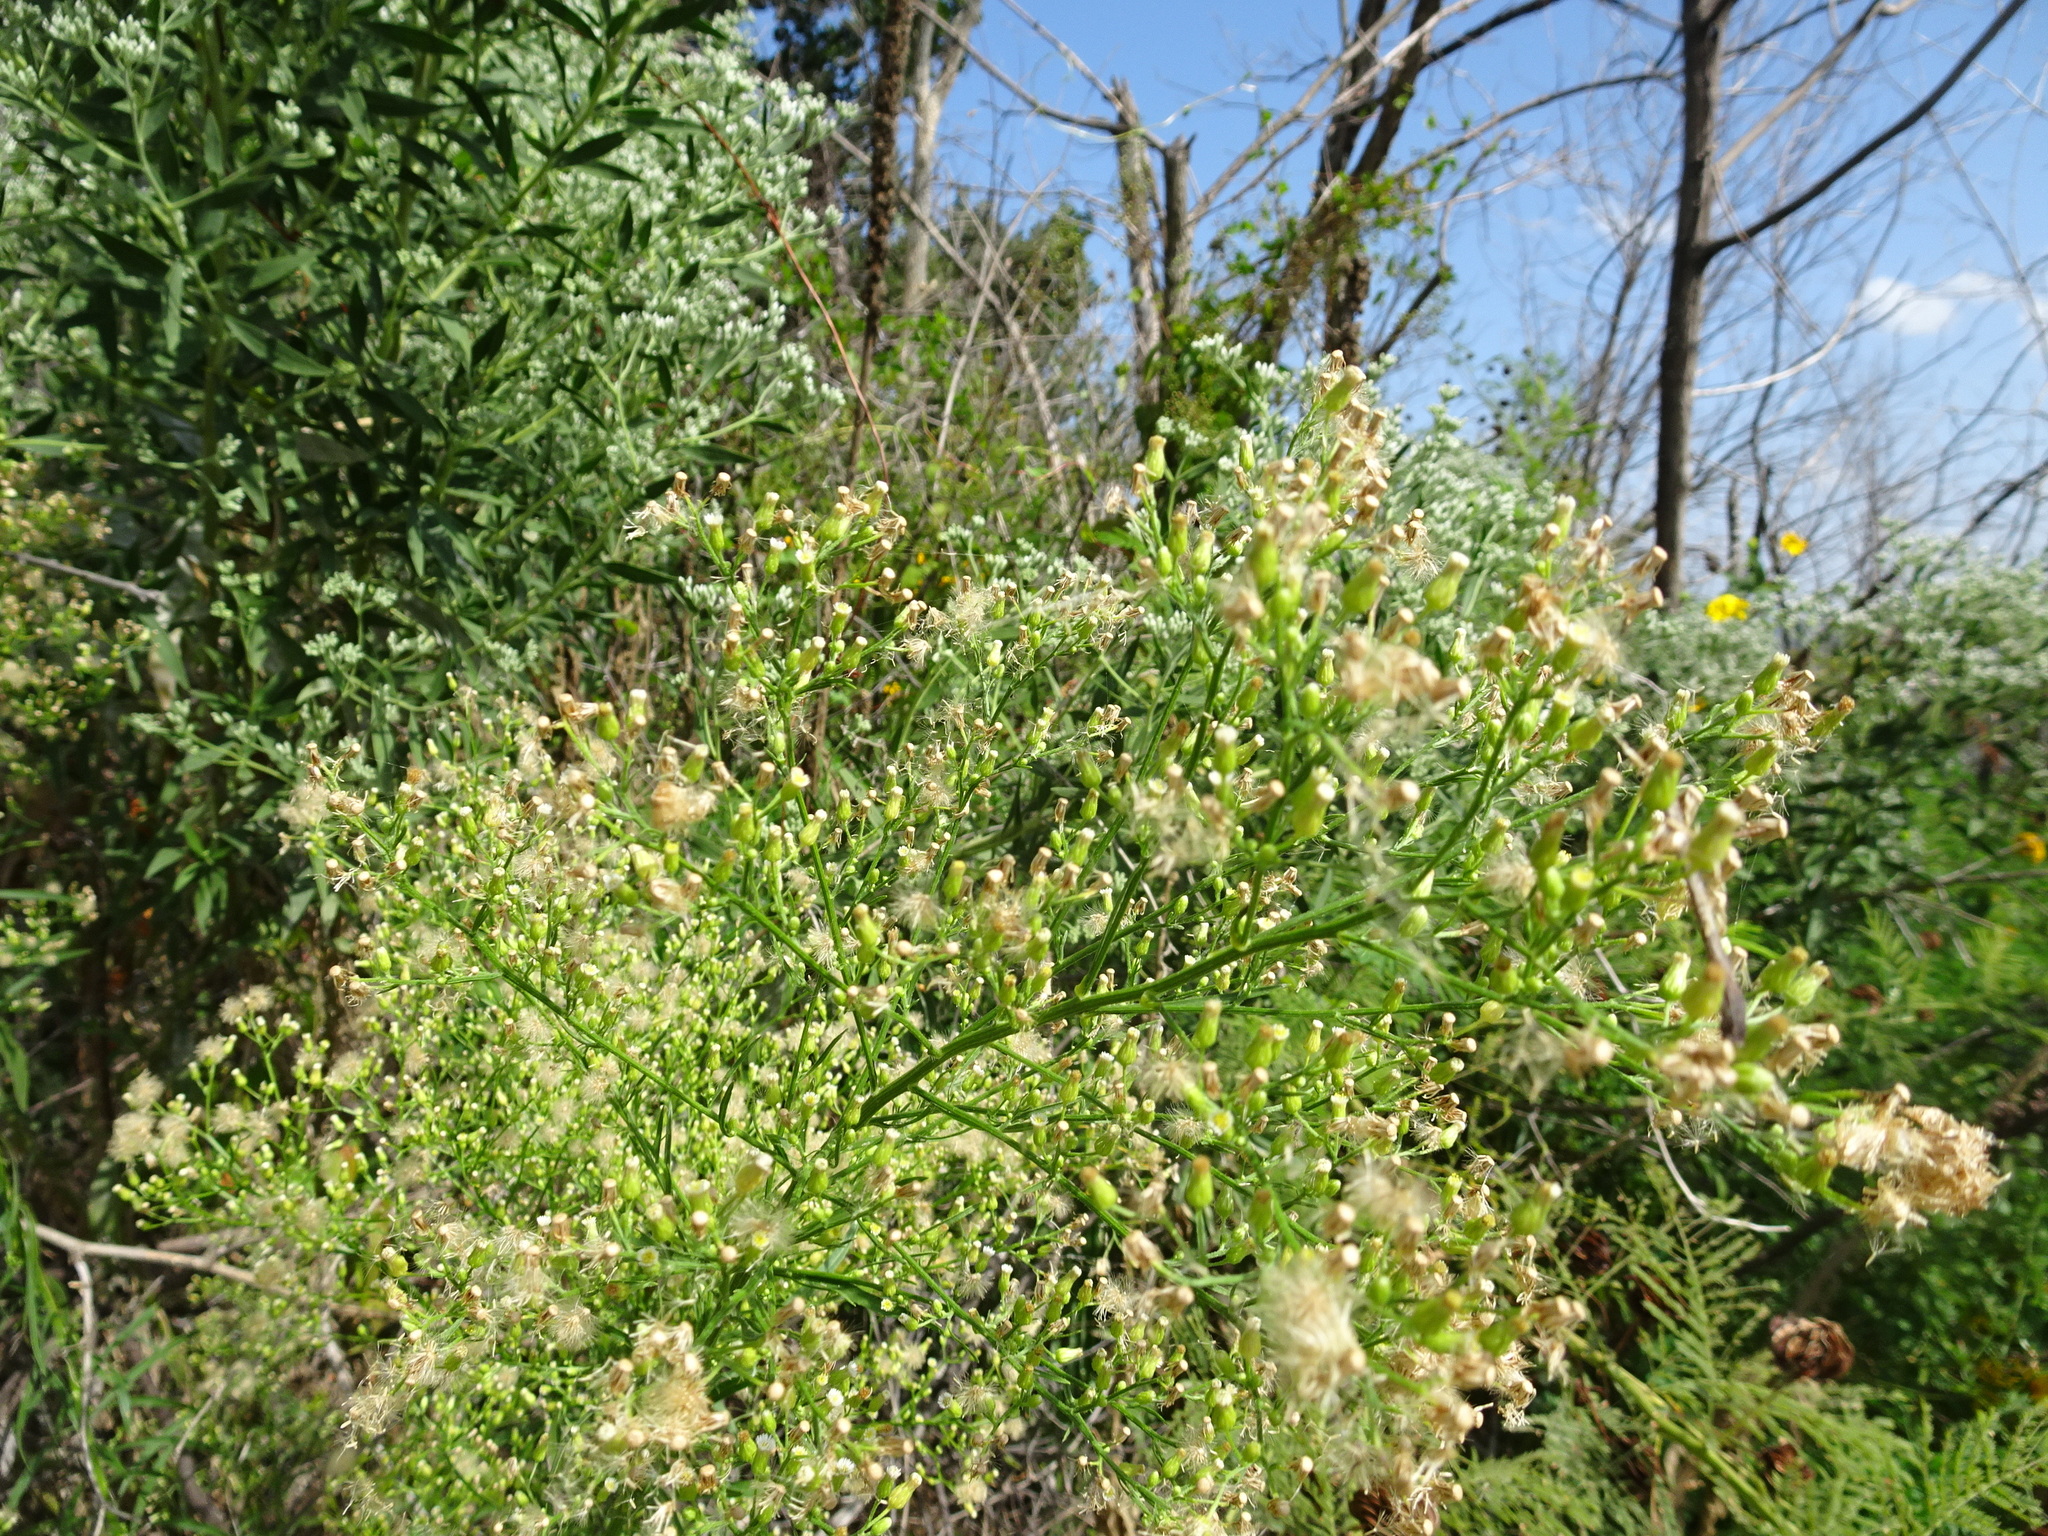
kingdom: Plantae
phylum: Tracheophyta
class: Magnoliopsida
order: Asterales
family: Asteraceae
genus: Erigeron
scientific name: Erigeron canadensis
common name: Canadian fleabane
